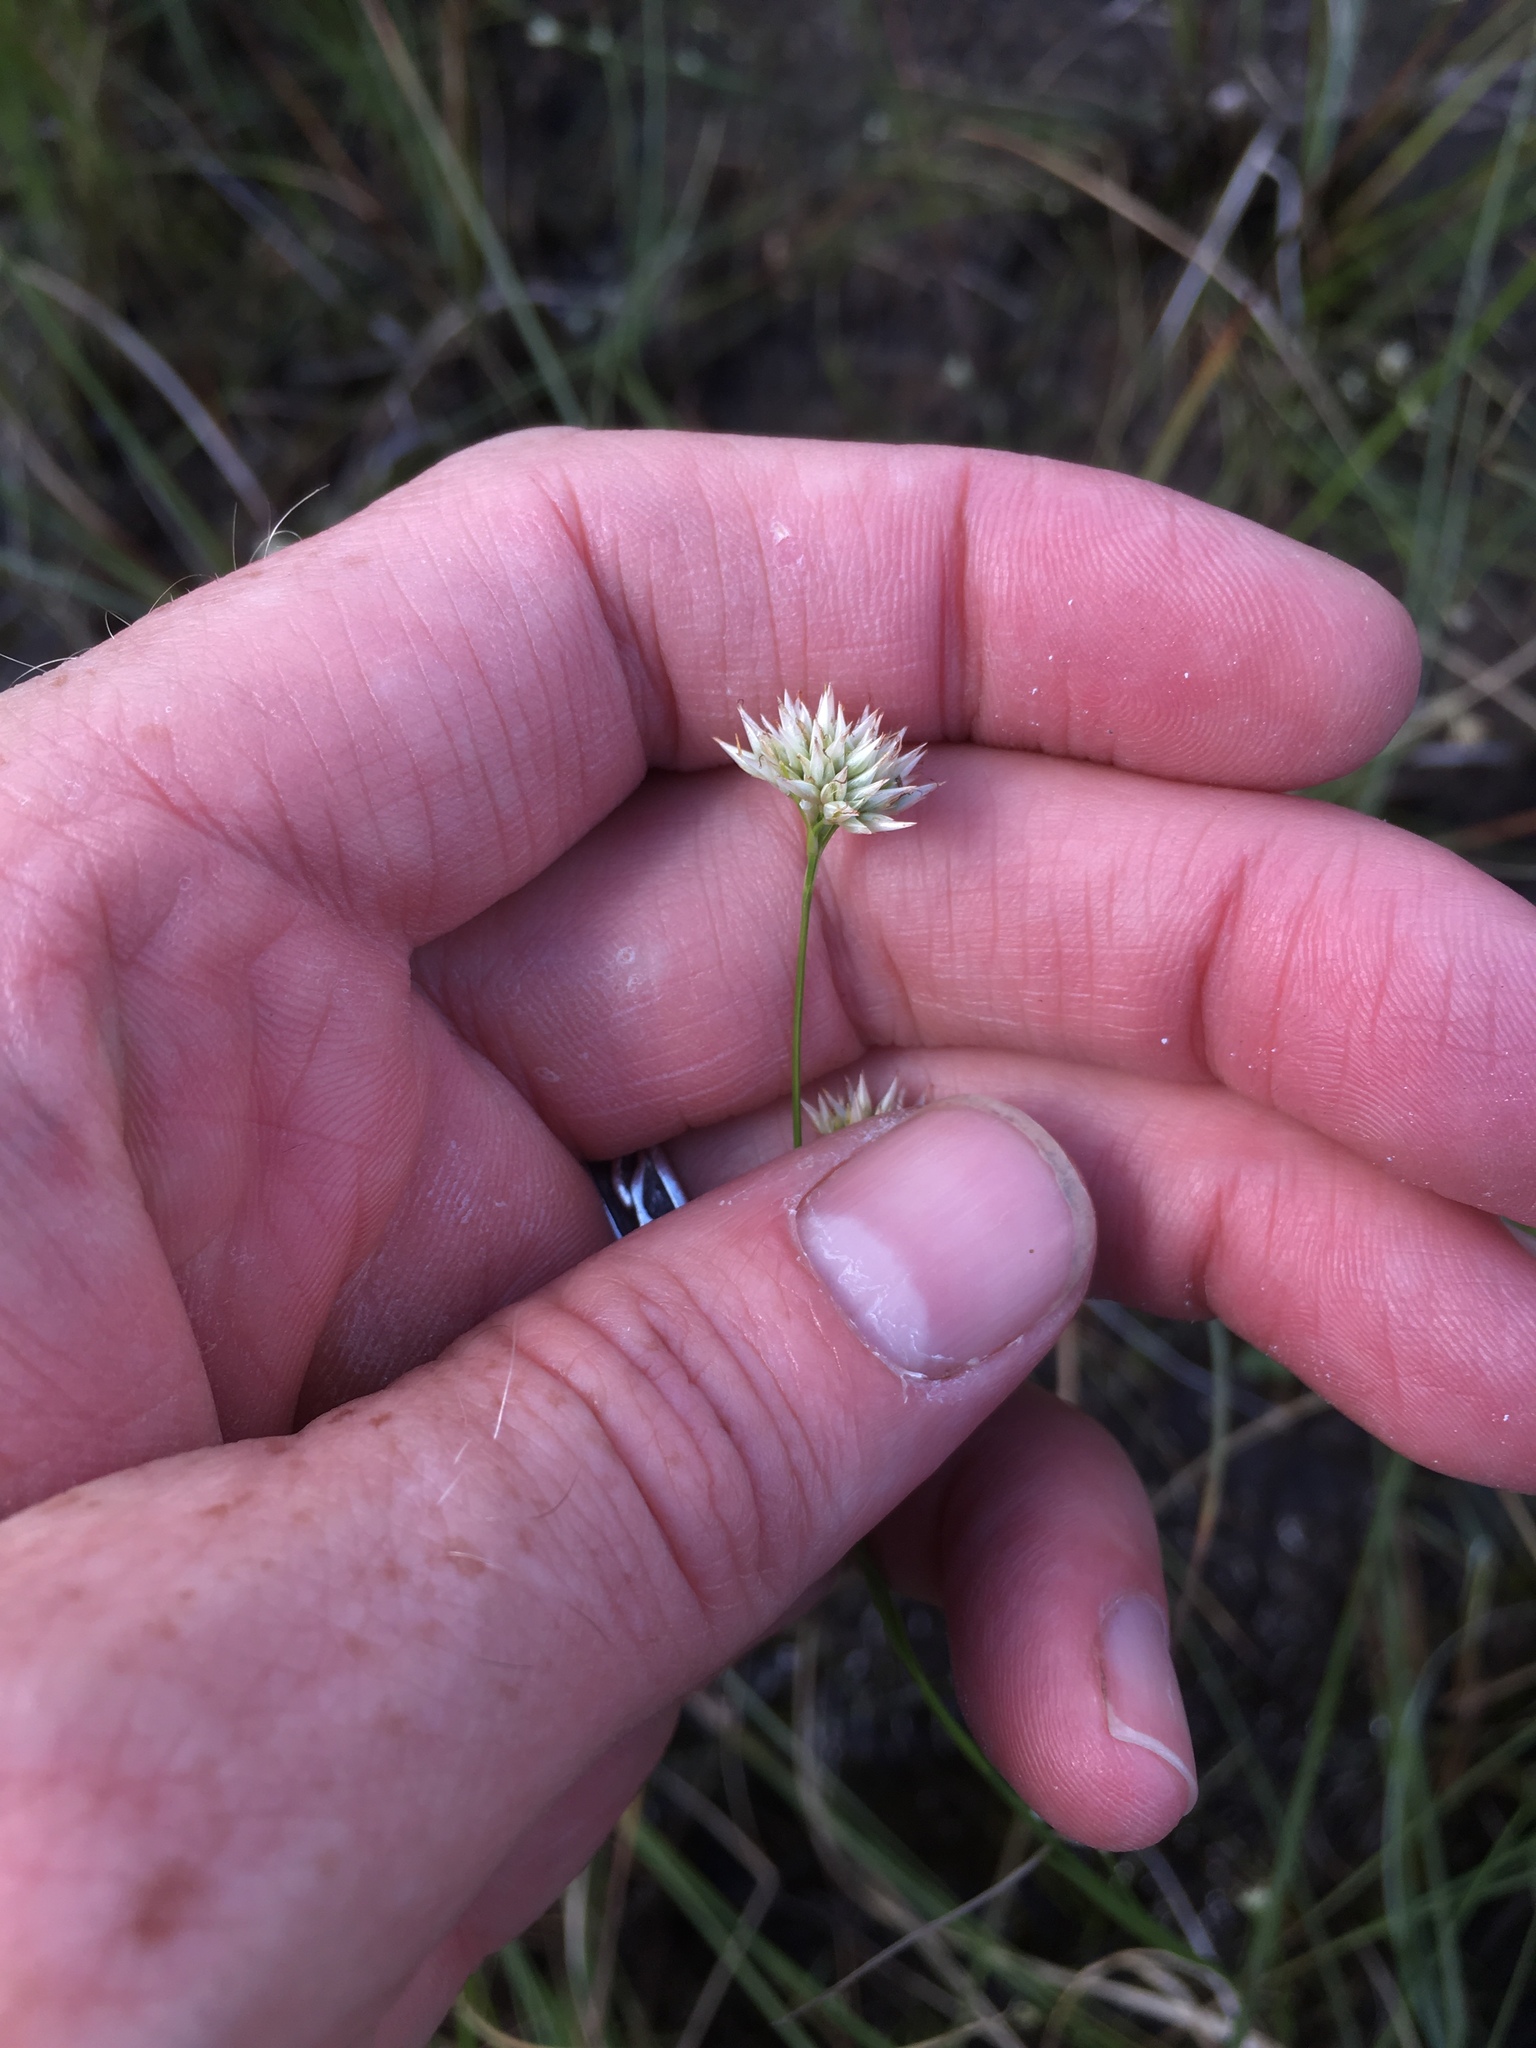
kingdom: Plantae
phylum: Tracheophyta
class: Liliopsida
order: Poales
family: Cyperaceae
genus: Rhynchospora
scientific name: Rhynchospora alba
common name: White beak-sedge
